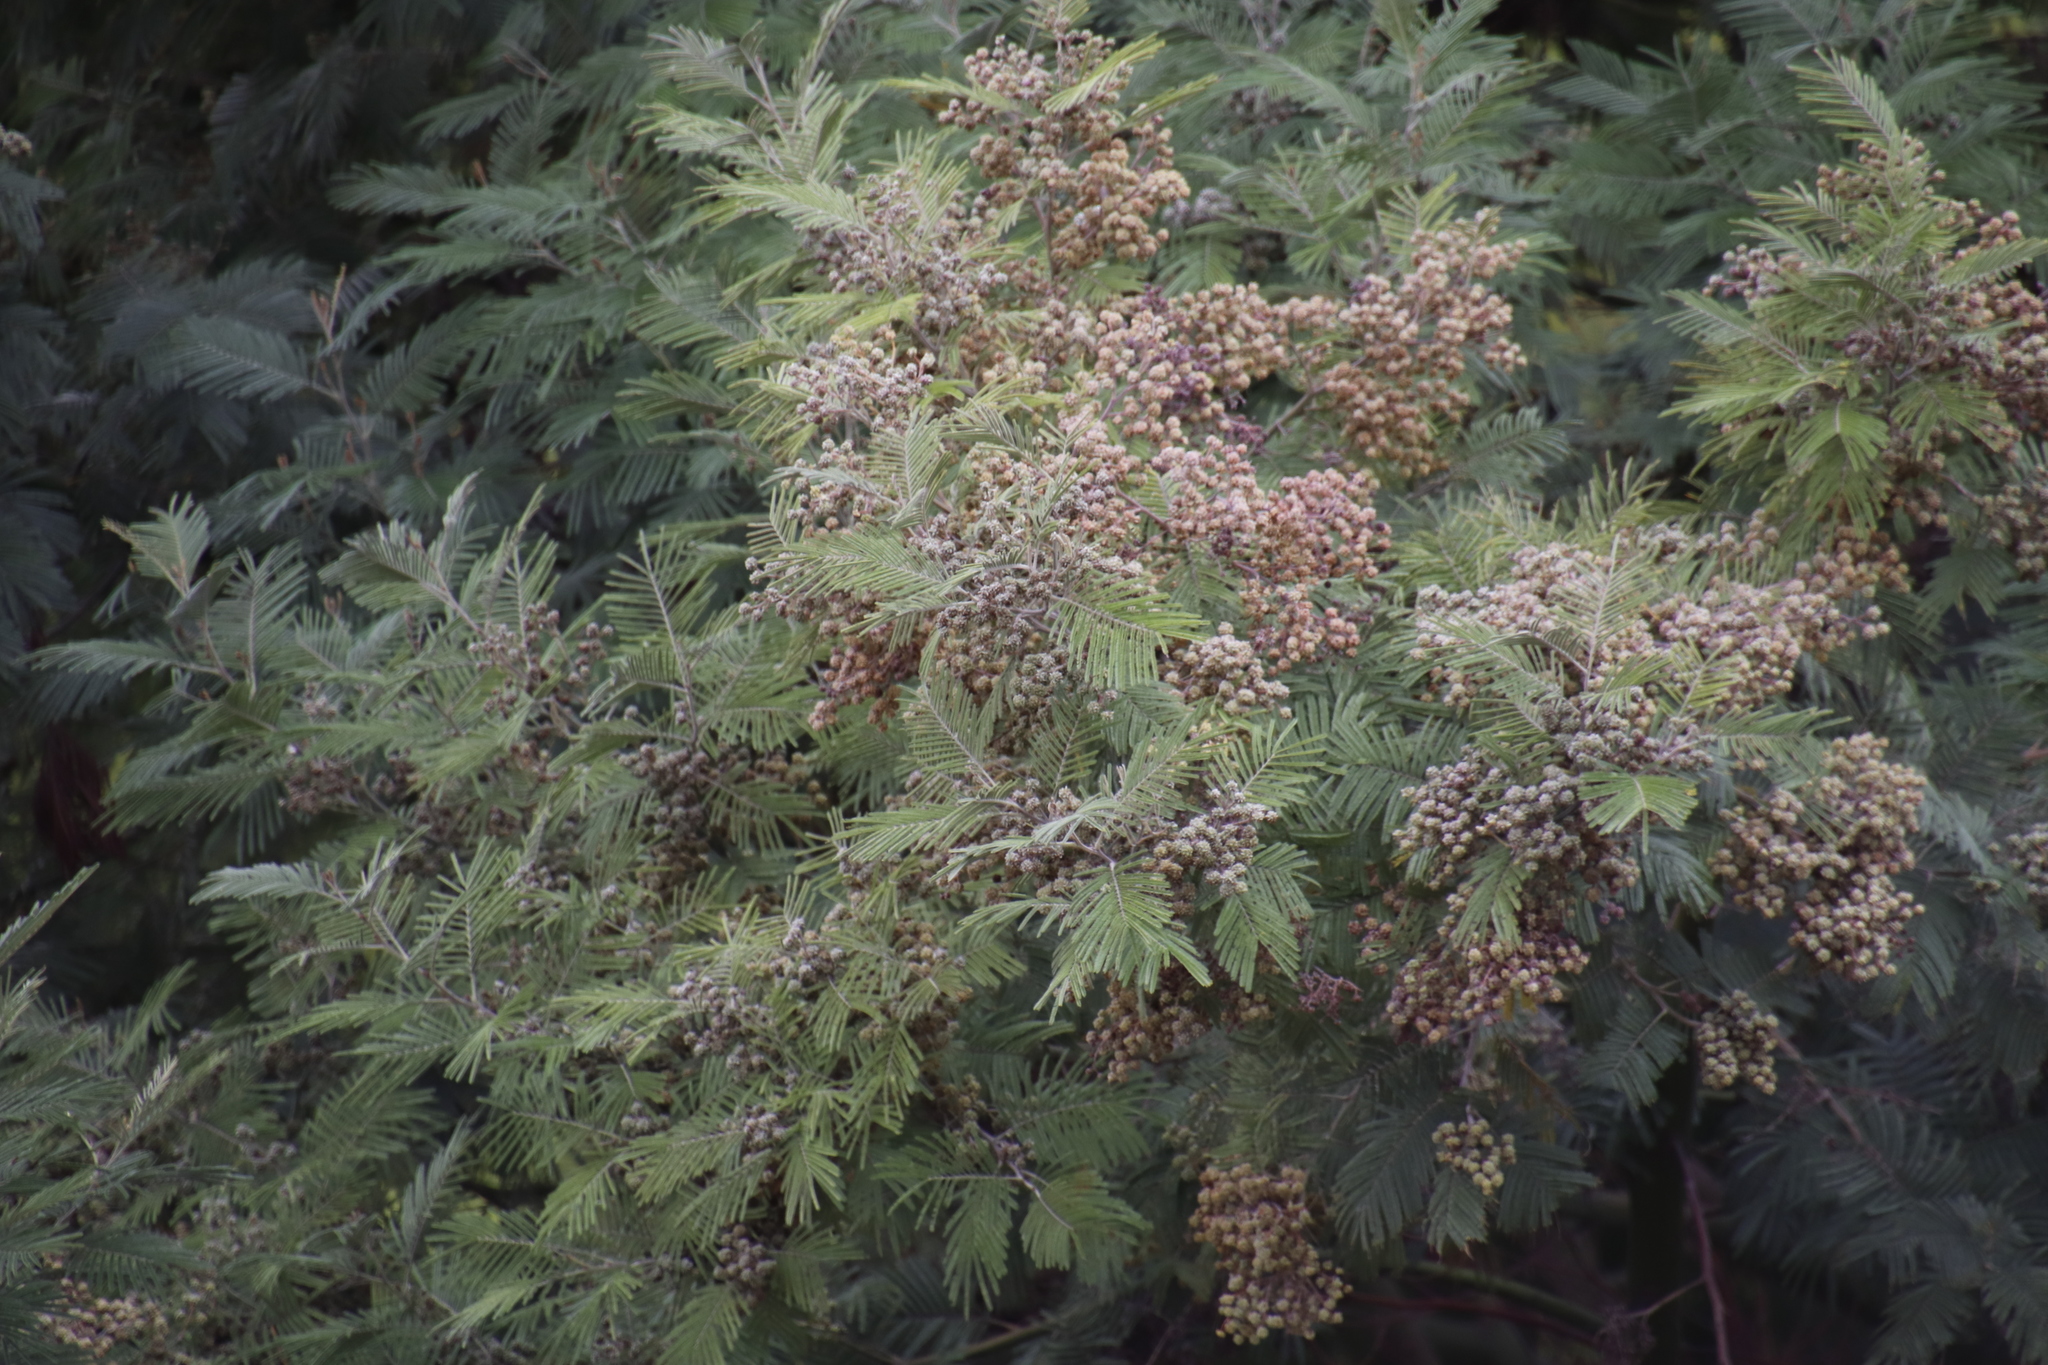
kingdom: Animalia
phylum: Arthropoda
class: Insecta
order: Diptera
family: Cecidomyiidae
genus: Dasineura
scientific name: Dasineura rubiformis
